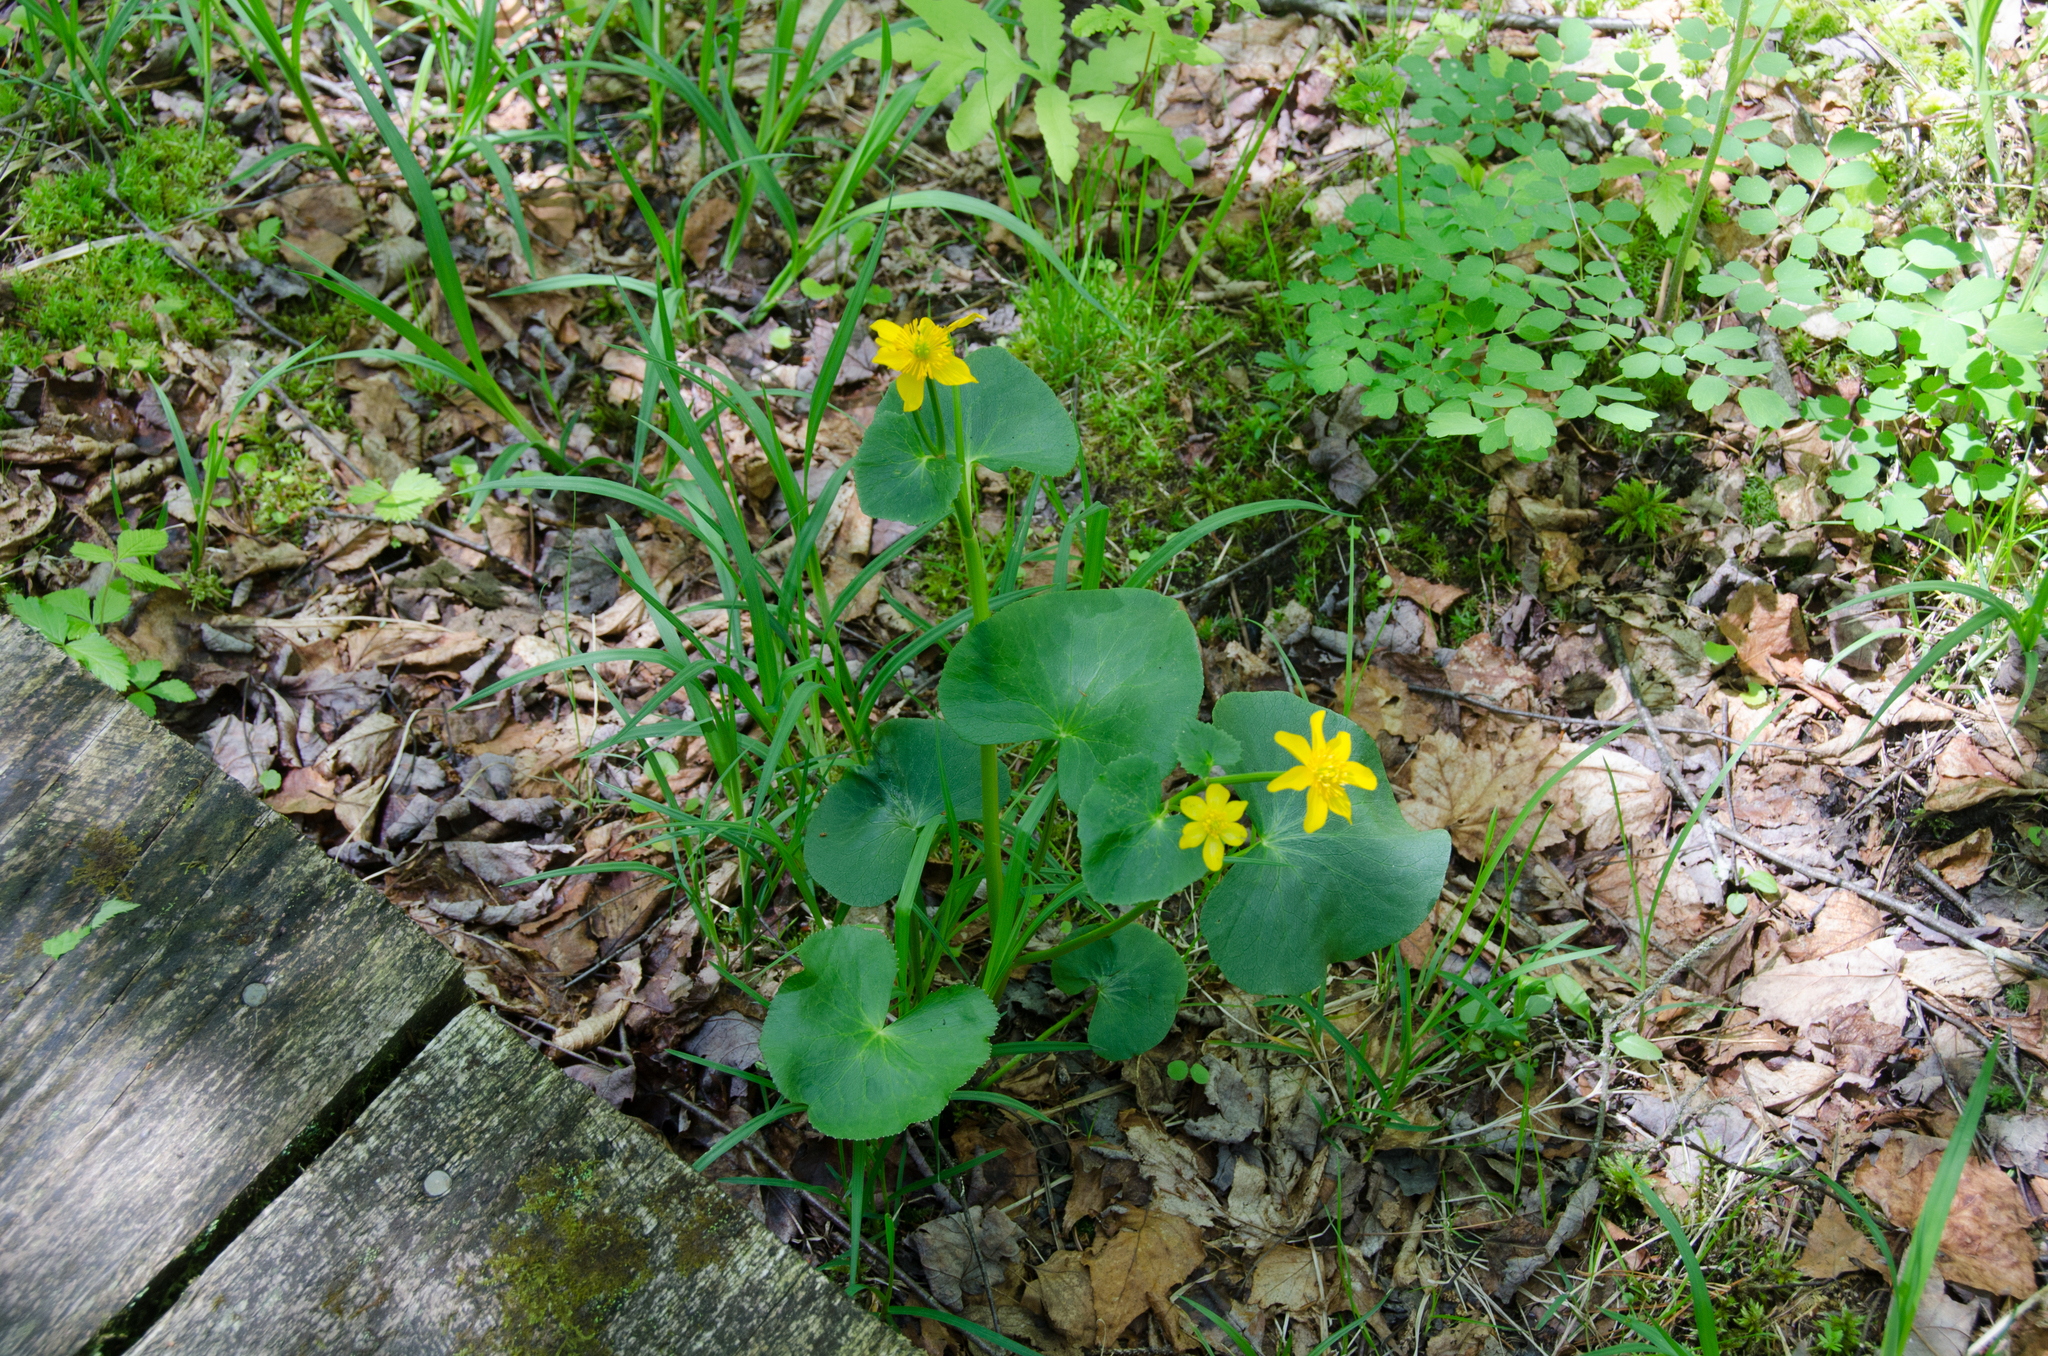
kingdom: Plantae
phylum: Tracheophyta
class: Magnoliopsida
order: Ranunculales
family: Ranunculaceae
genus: Caltha
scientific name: Caltha palustris
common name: Marsh marigold
